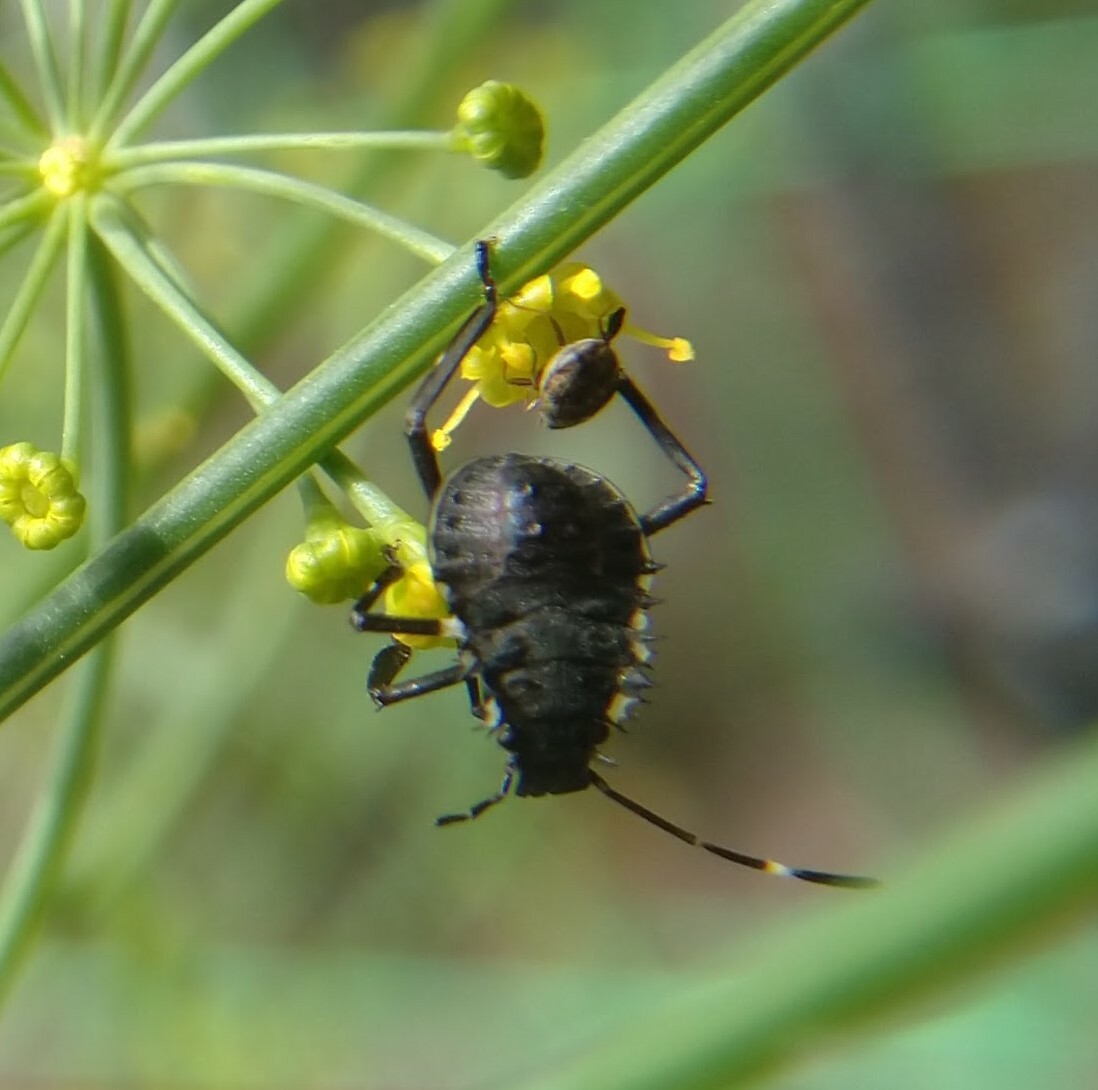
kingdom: Animalia
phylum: Arthropoda
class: Insecta
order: Hemiptera
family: Pentatomidae
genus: Halyomorpha
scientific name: Halyomorpha halys
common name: Brown marmorated stink bug
